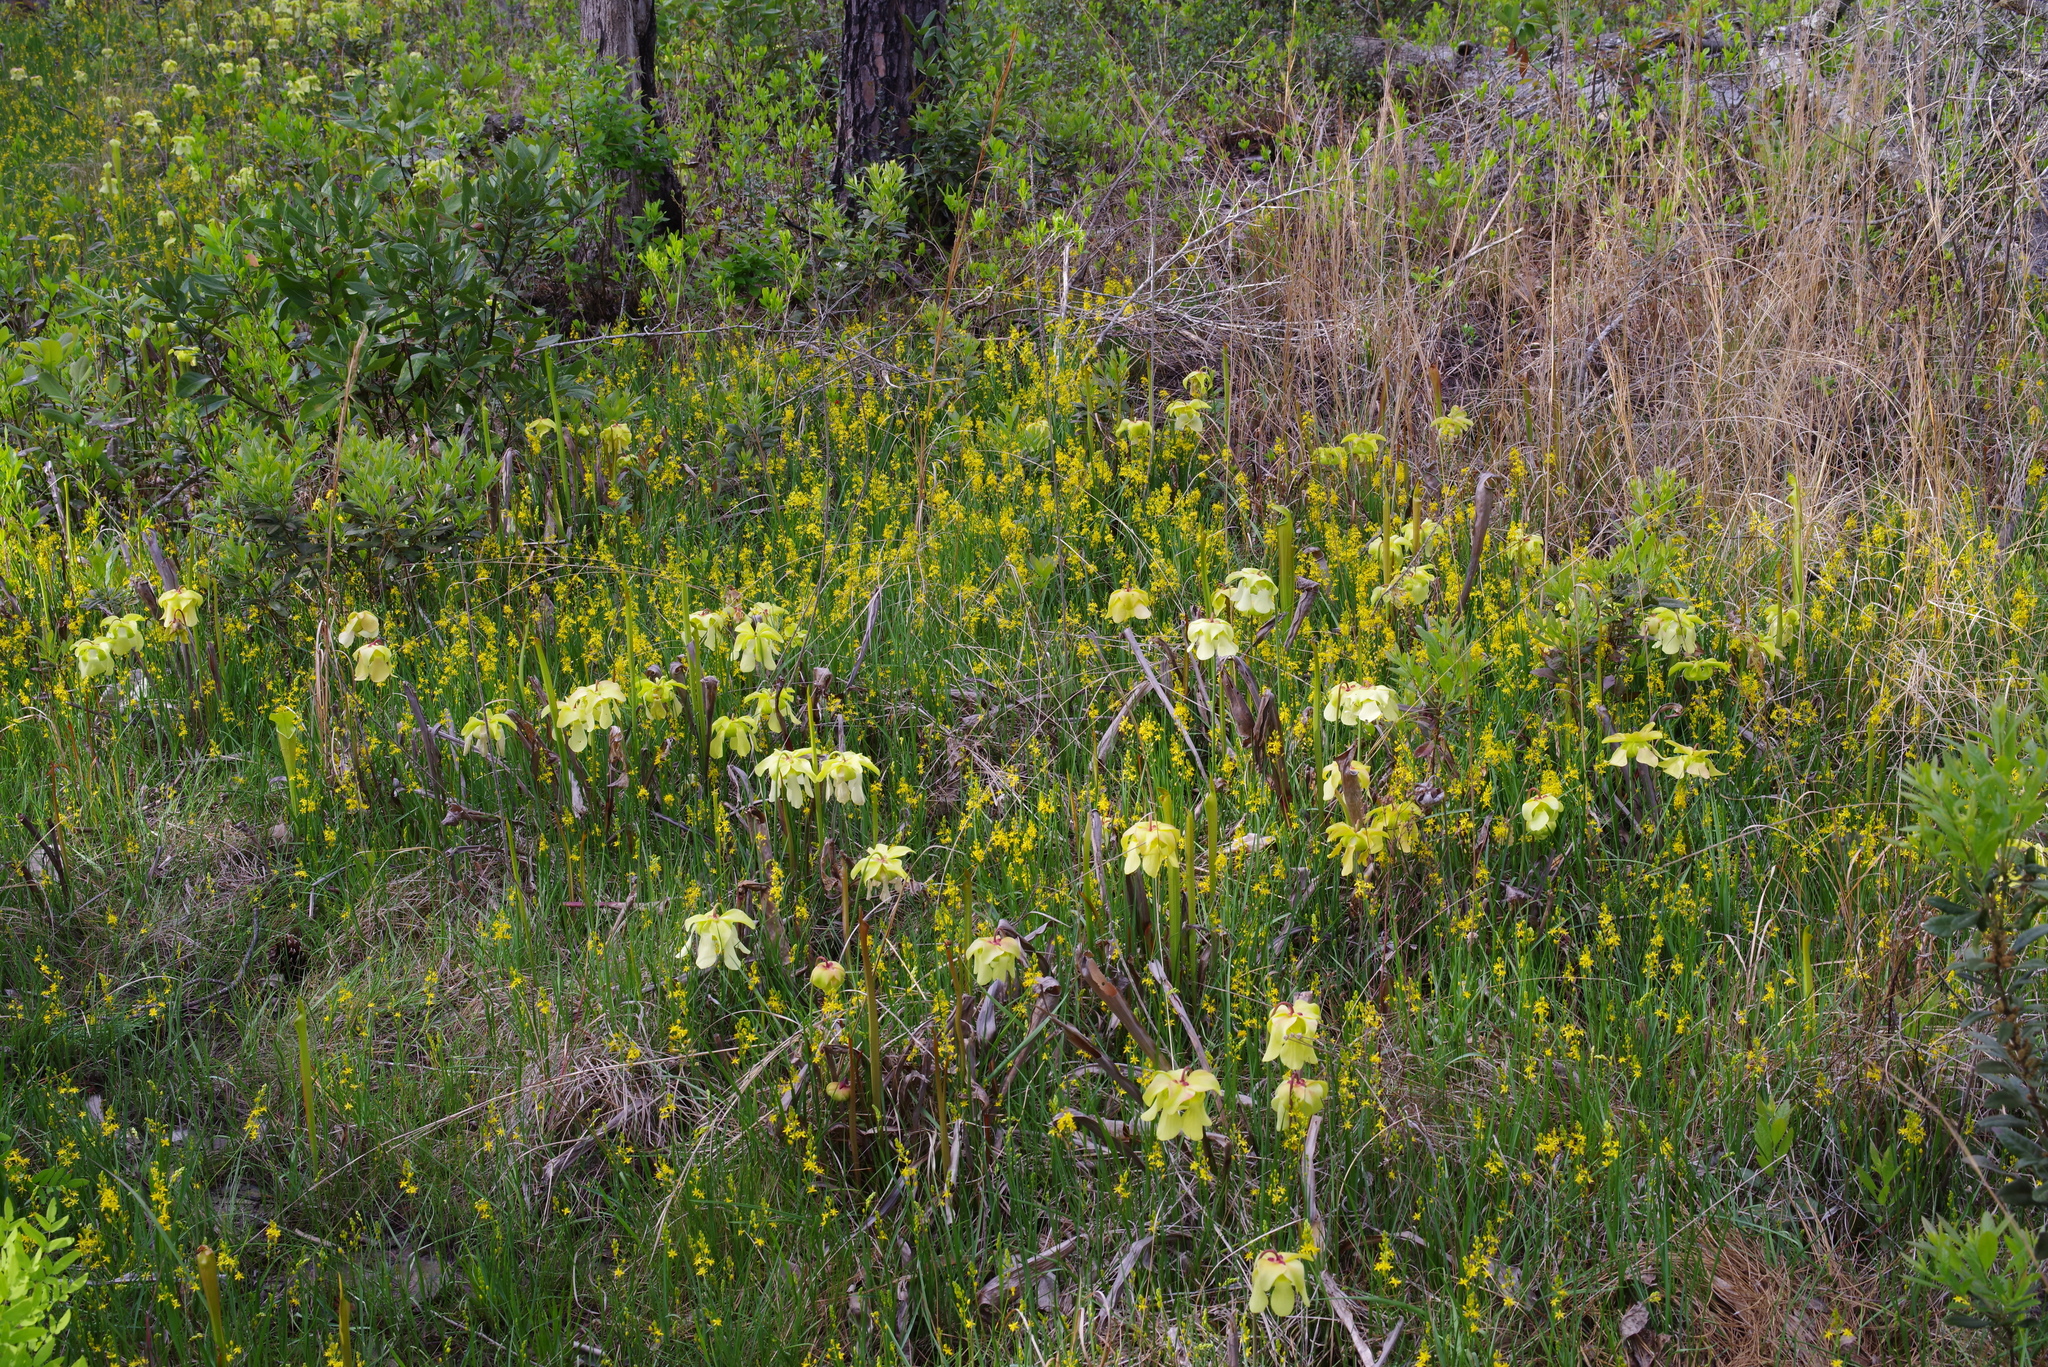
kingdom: Plantae
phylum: Tracheophyta
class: Magnoliopsida
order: Ericales
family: Sarraceniaceae
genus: Sarracenia
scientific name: Sarracenia alata
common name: Yellow trumpets
